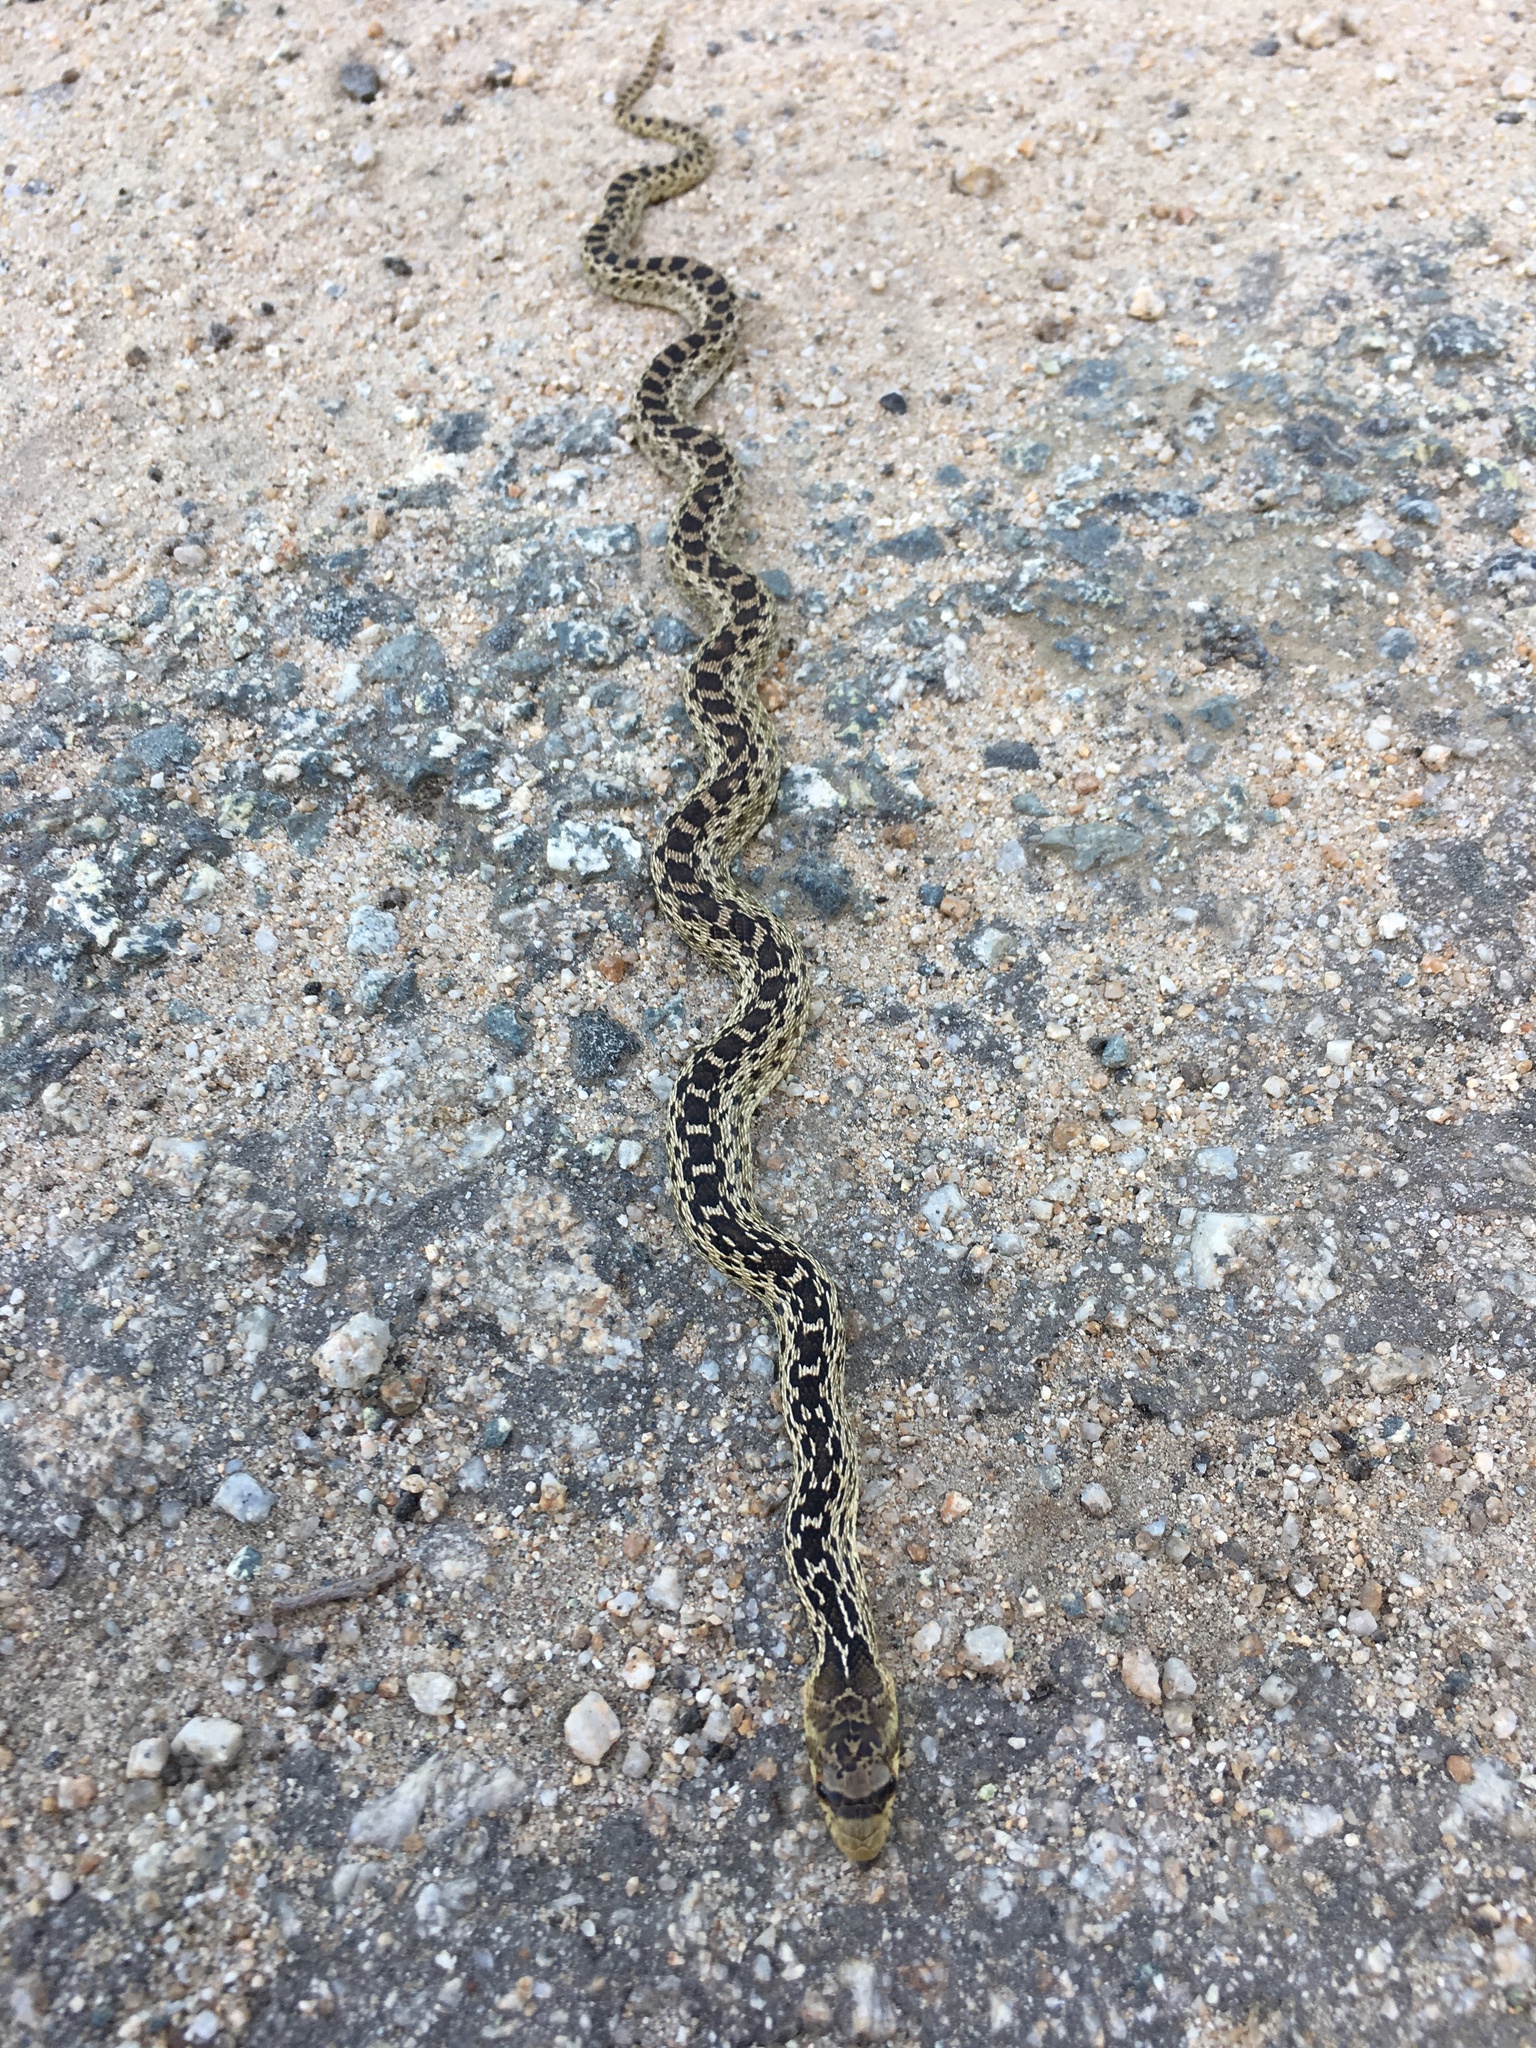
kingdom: Animalia
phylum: Chordata
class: Squamata
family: Colubridae
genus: Pituophis
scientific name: Pituophis catenifer
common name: Gopher snake
